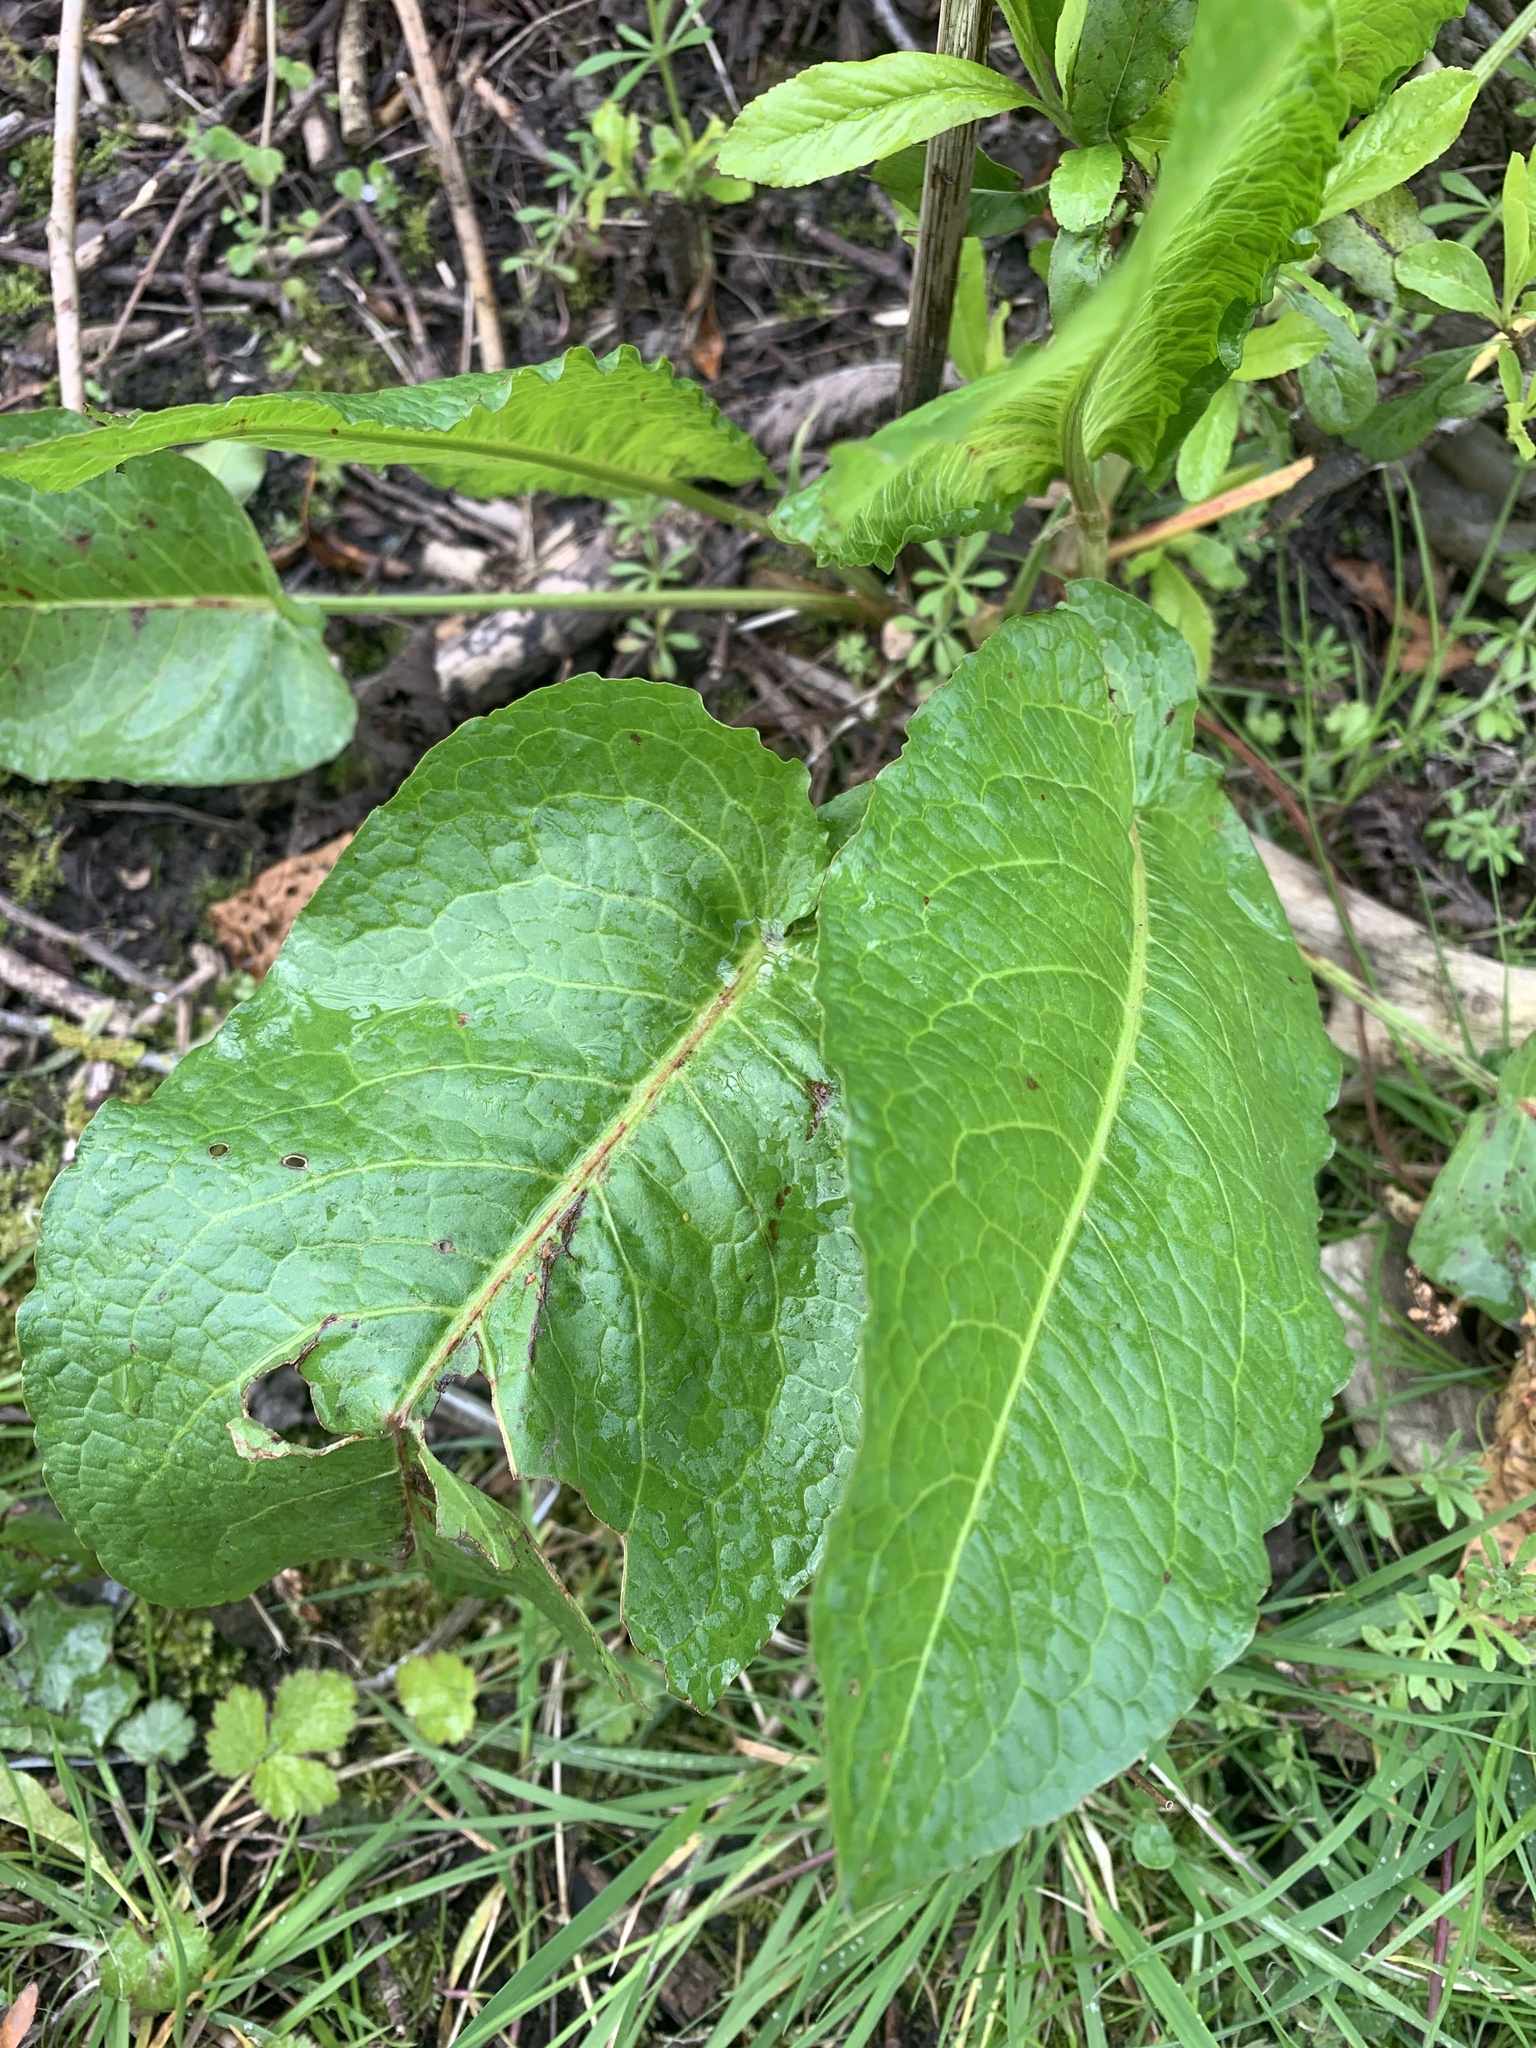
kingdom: Plantae
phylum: Tracheophyta
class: Magnoliopsida
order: Caryophyllales
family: Polygonaceae
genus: Rumex
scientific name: Rumex obtusifolius
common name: Bitter dock
